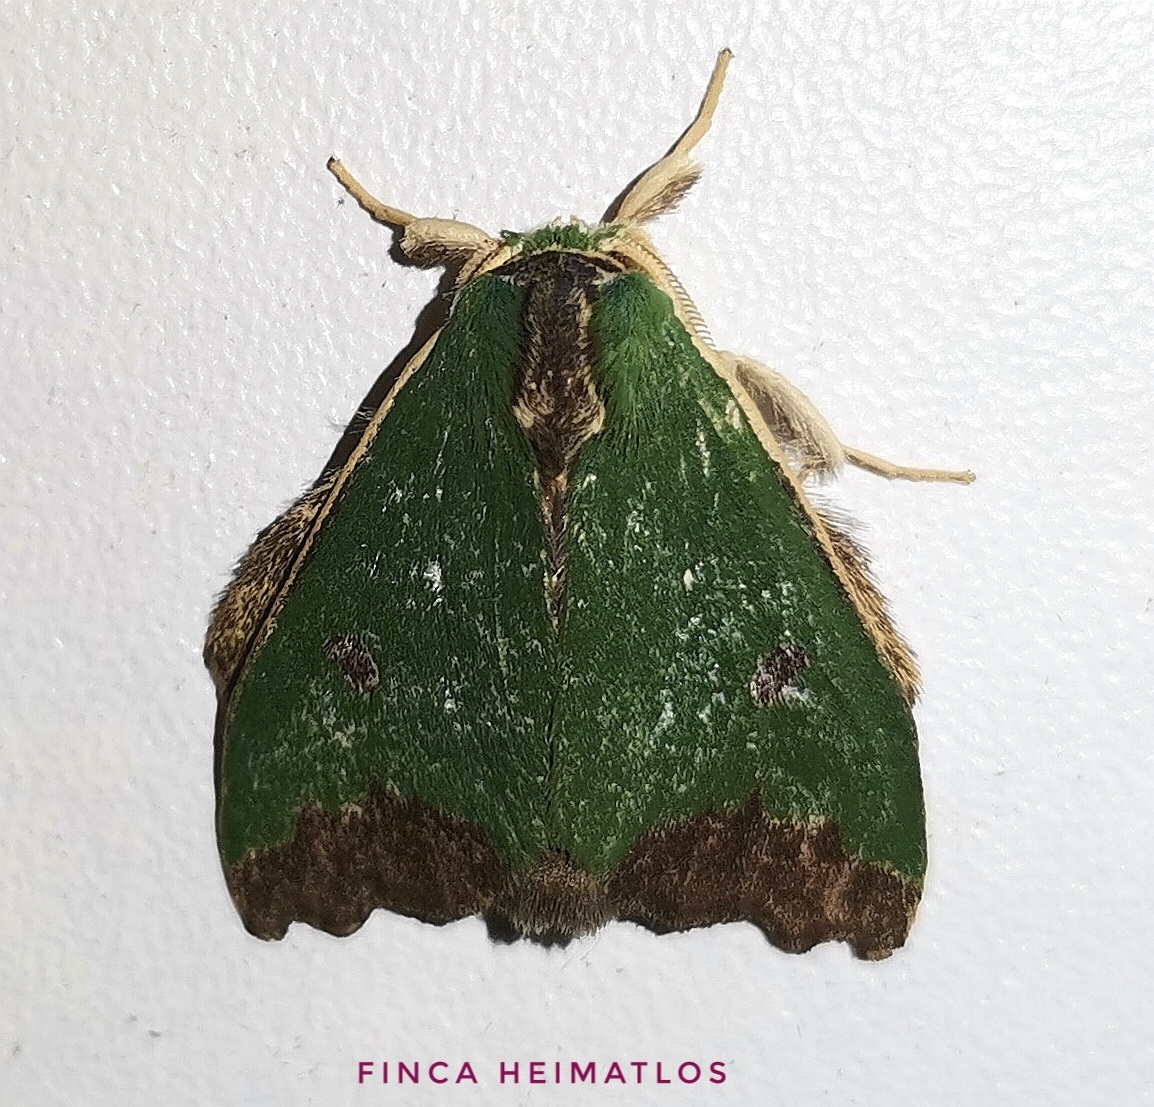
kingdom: Animalia
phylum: Arthropoda
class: Insecta
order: Lepidoptera
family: Notodontidae
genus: Rosema
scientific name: Rosema thestia
